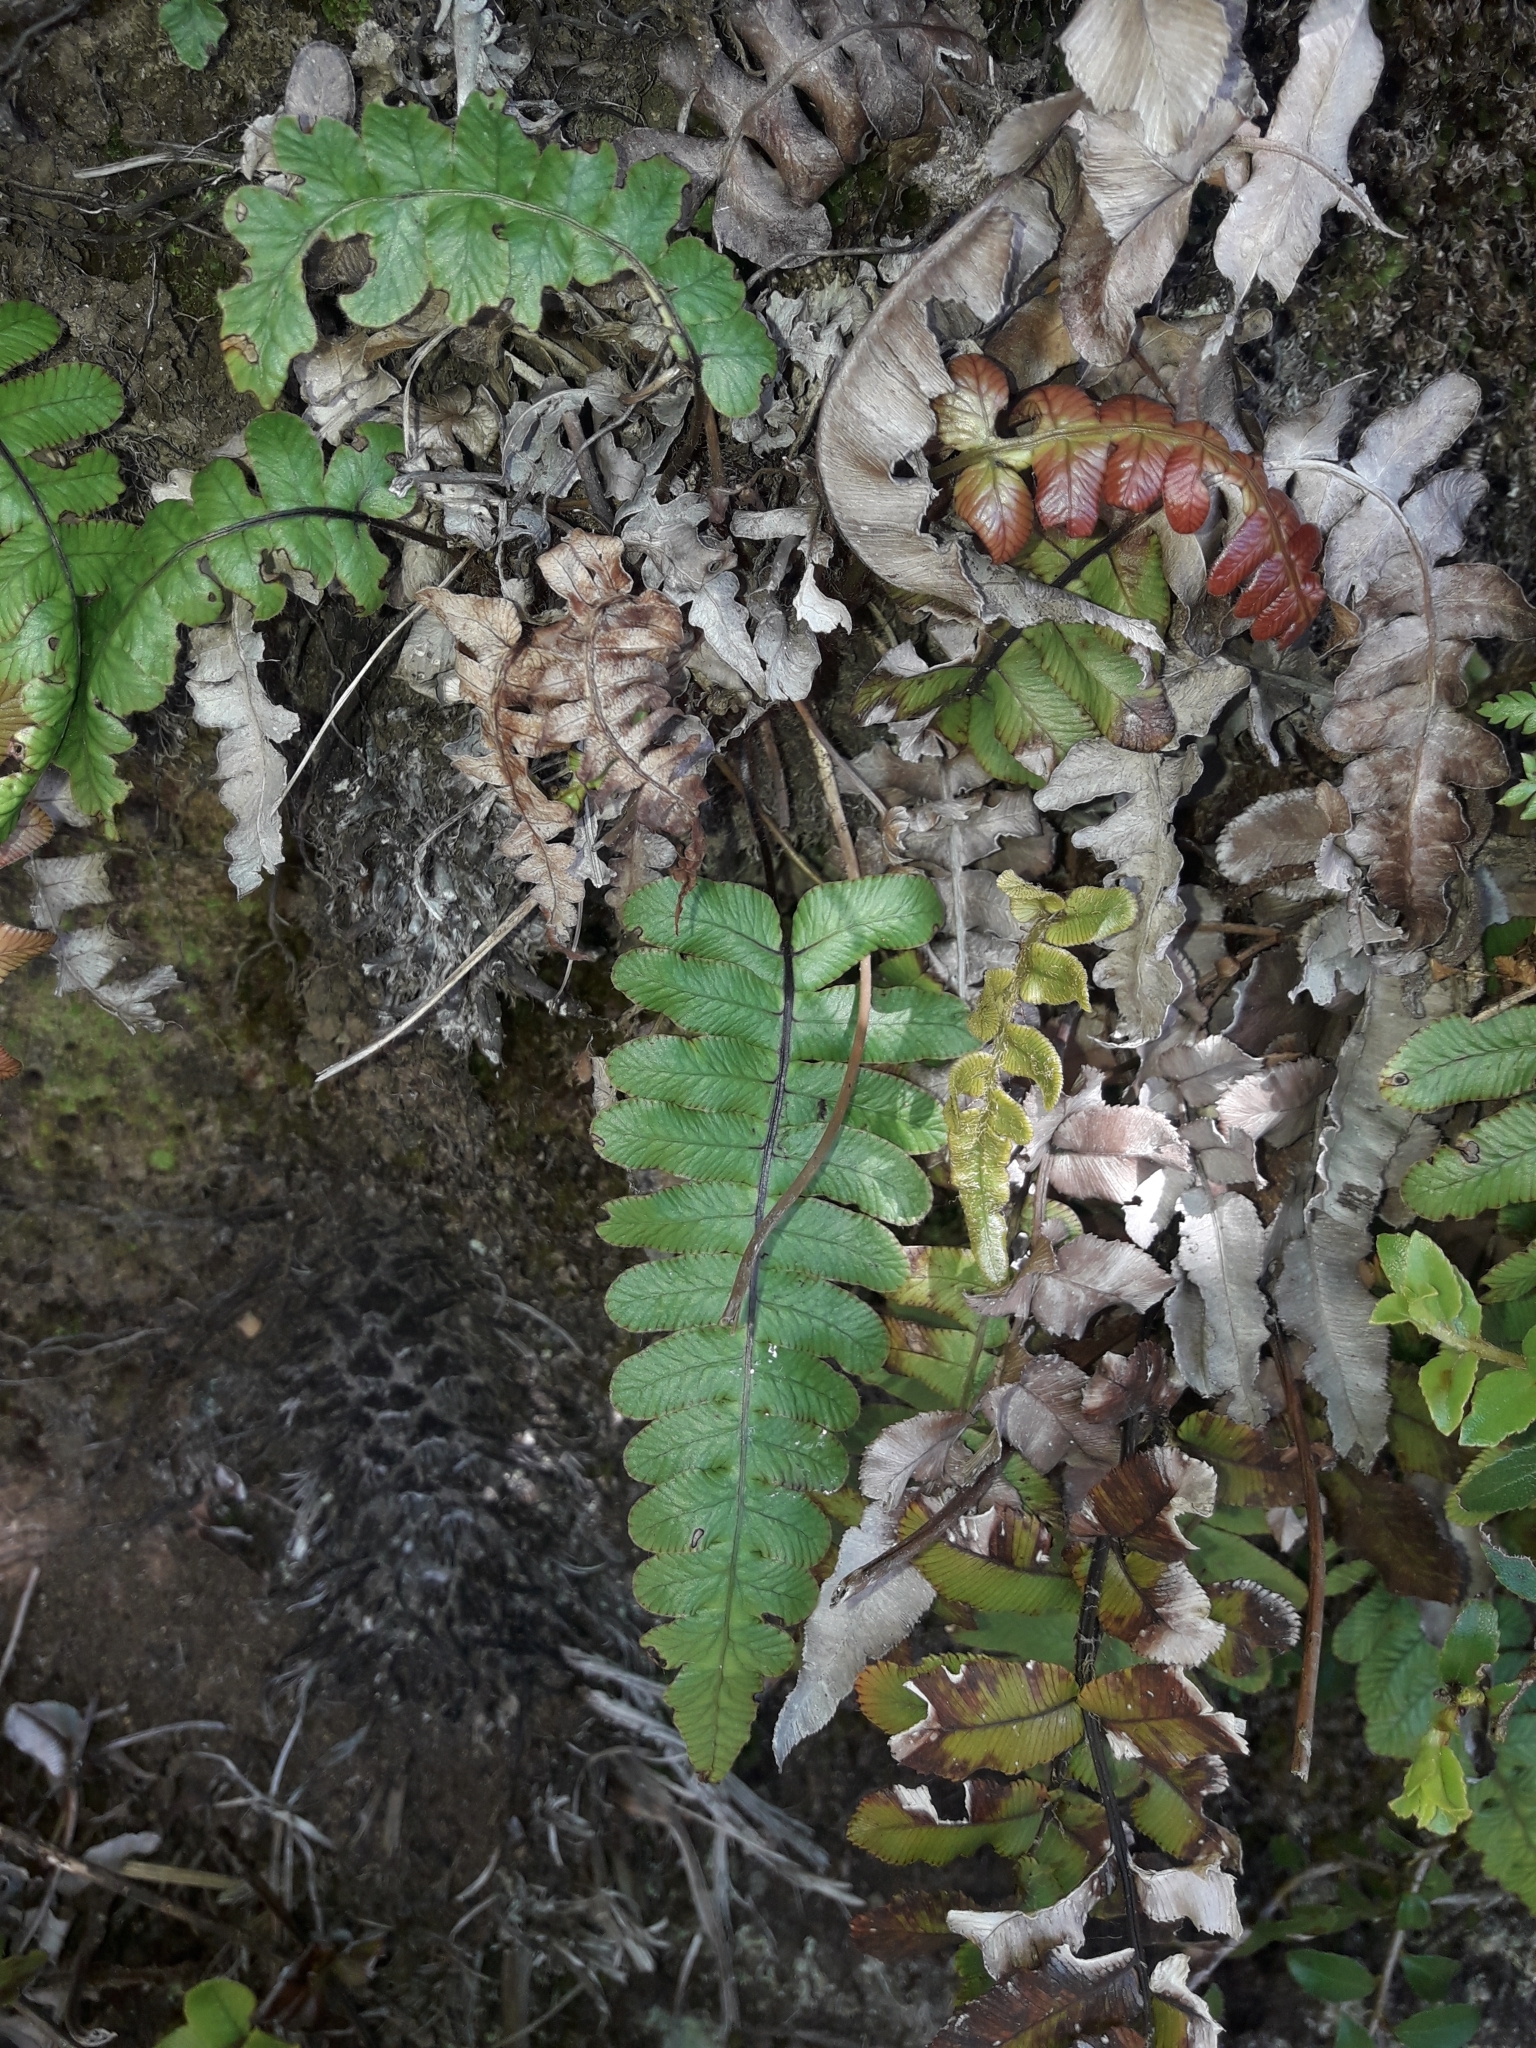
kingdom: Plantae
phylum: Tracheophyta
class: Polypodiopsida
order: Polypodiales
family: Blechnaceae
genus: Cranfillia
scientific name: Cranfillia deltoides
